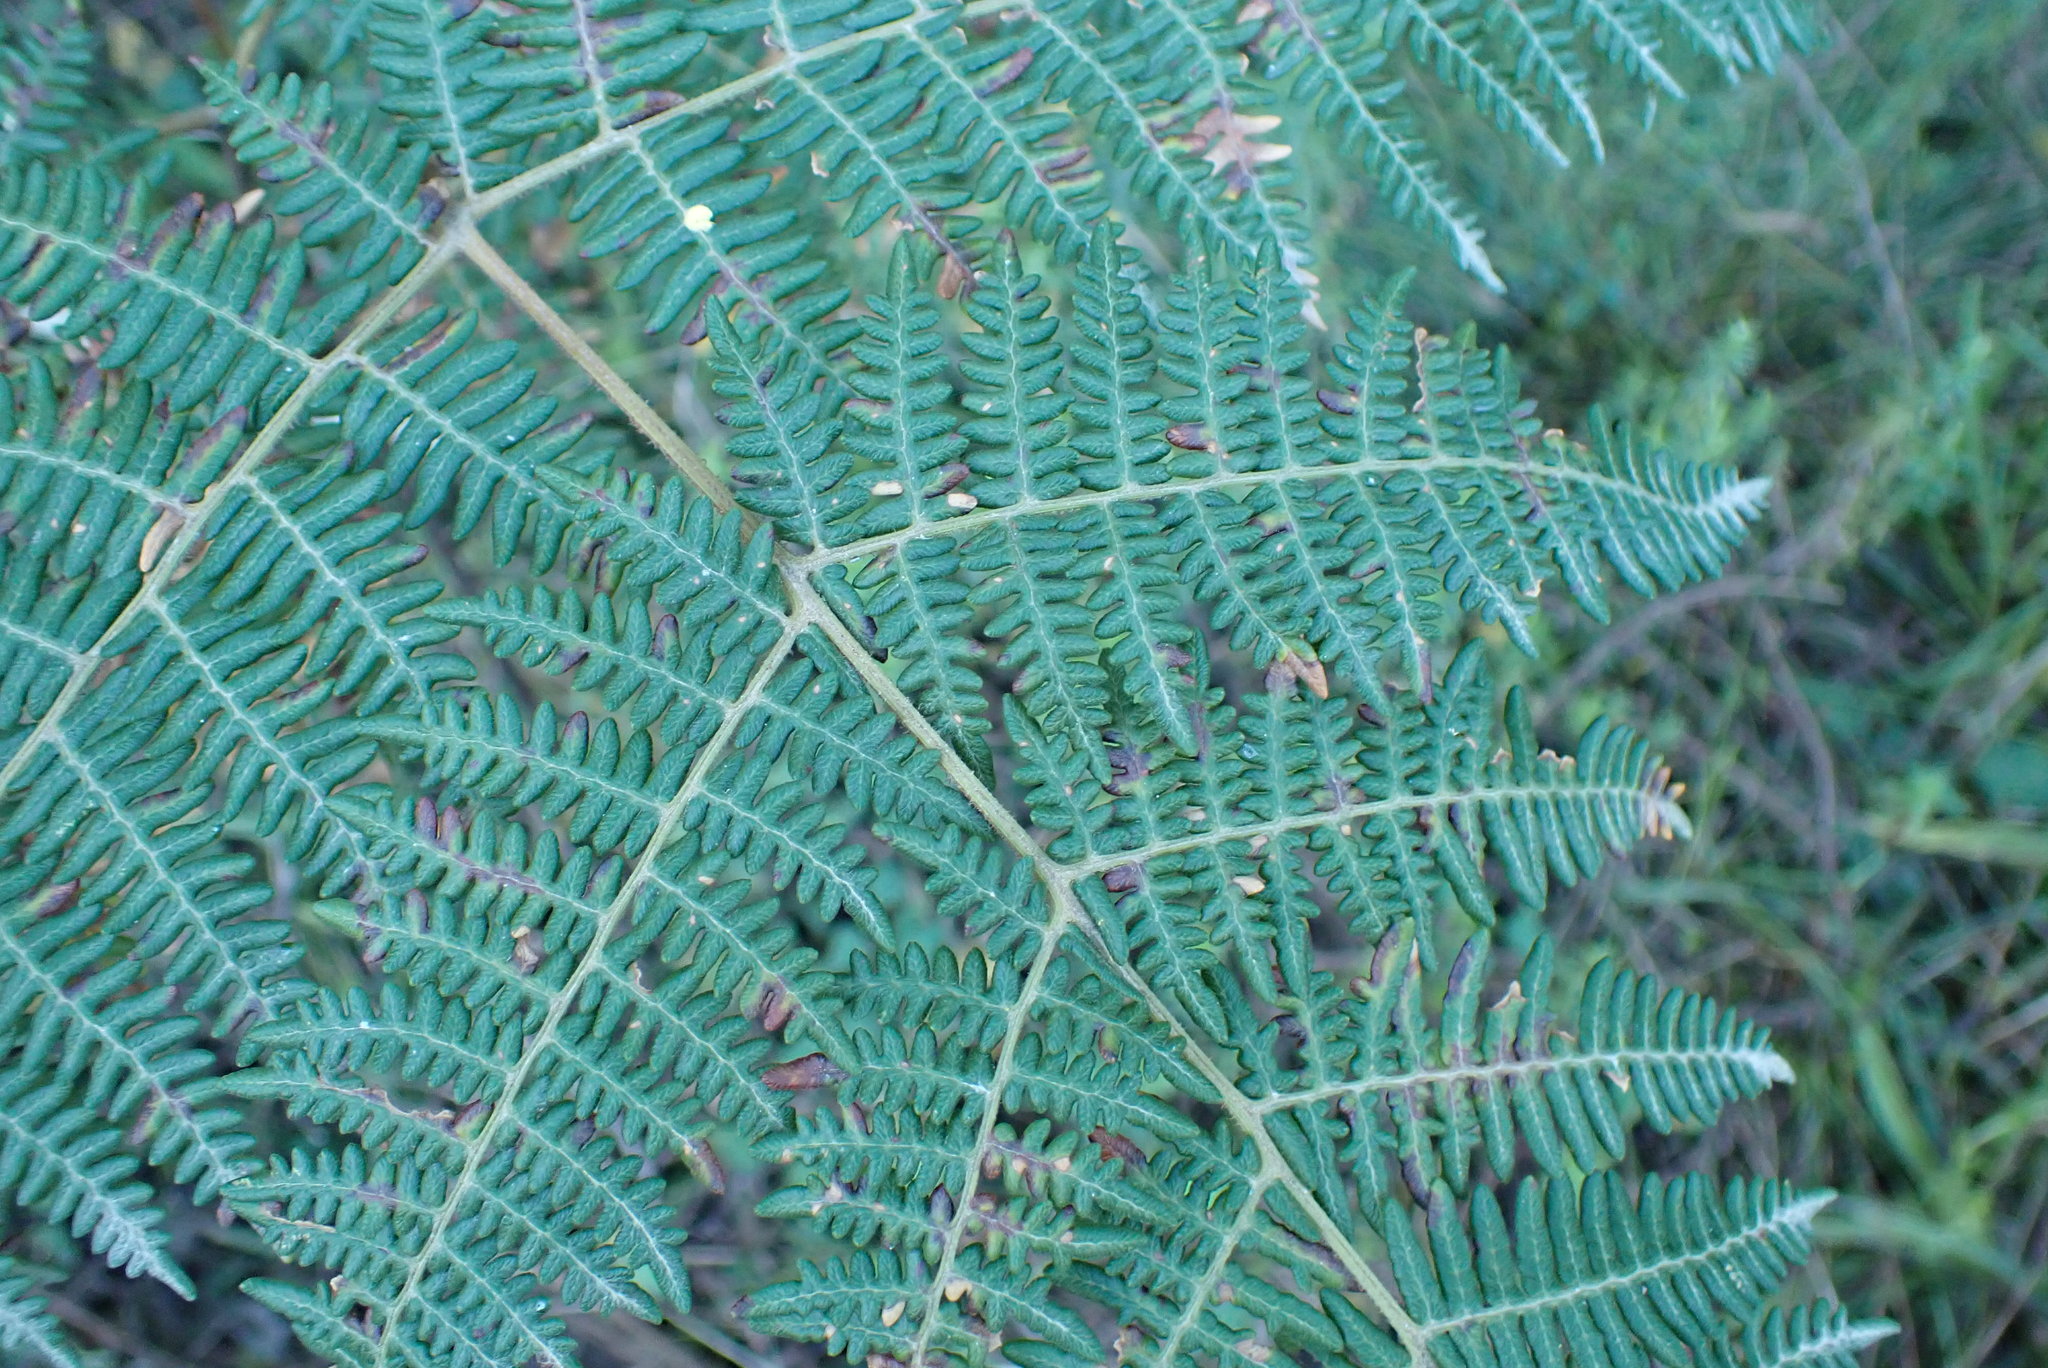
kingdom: Plantae
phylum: Tracheophyta
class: Polypodiopsida
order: Polypodiales
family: Dennstaedtiaceae
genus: Pteridium
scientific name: Pteridium aquilinum
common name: Bracken
